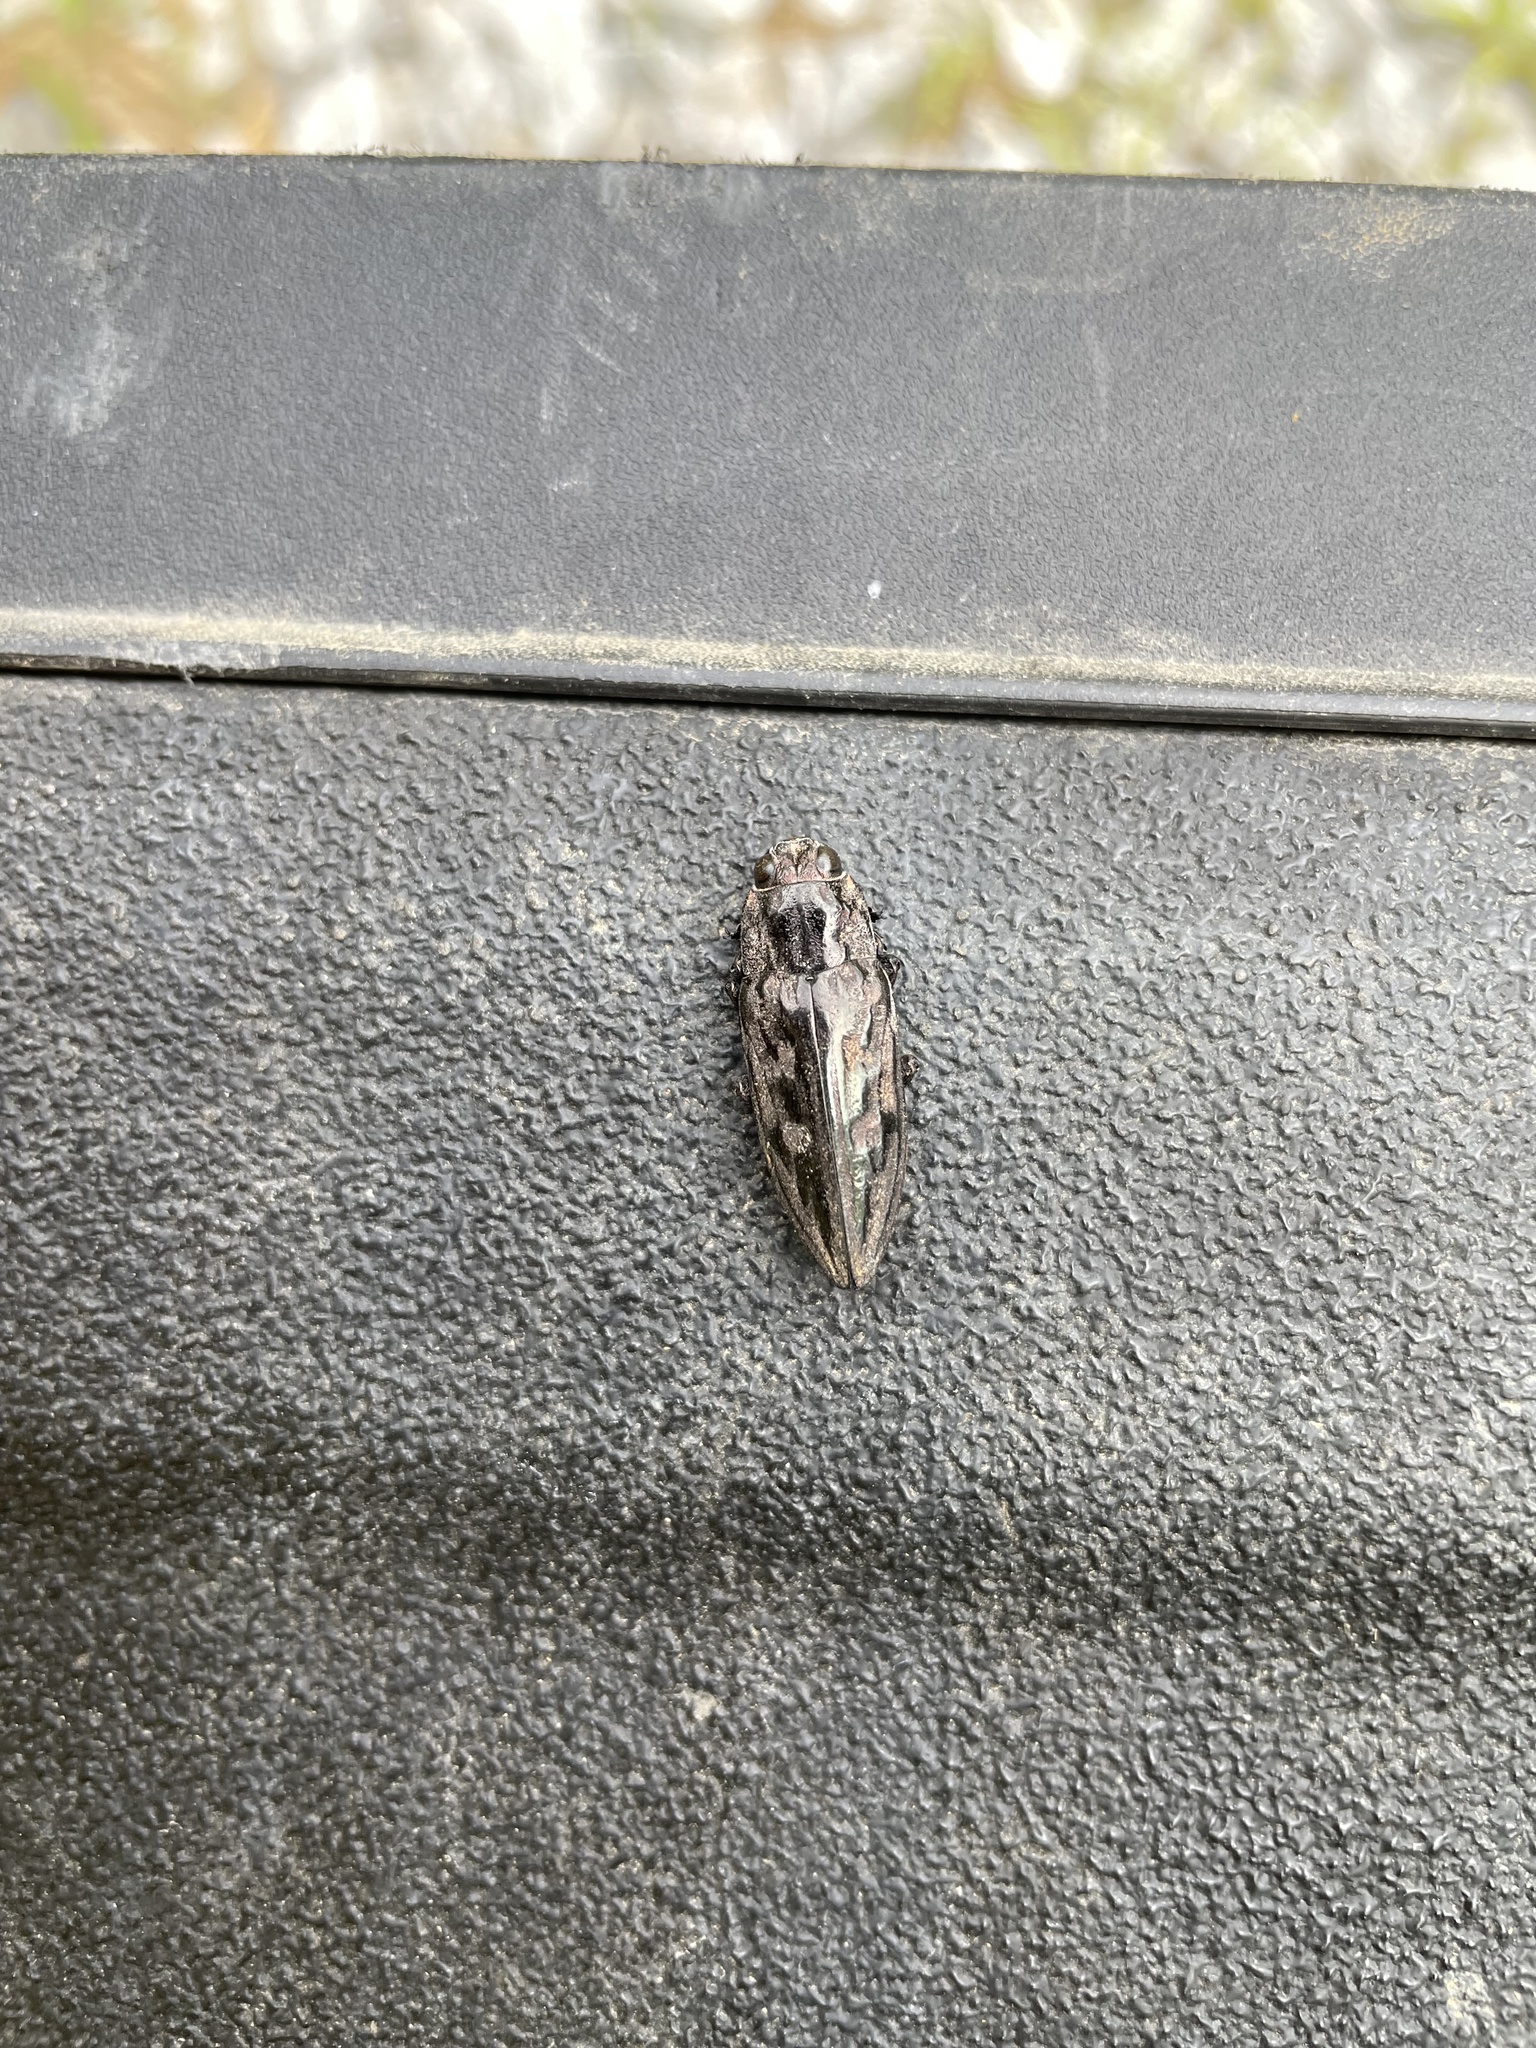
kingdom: Animalia
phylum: Arthropoda
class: Insecta
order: Coleoptera
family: Buprestidae
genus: Chalcophora
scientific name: Chalcophora virginiensis
